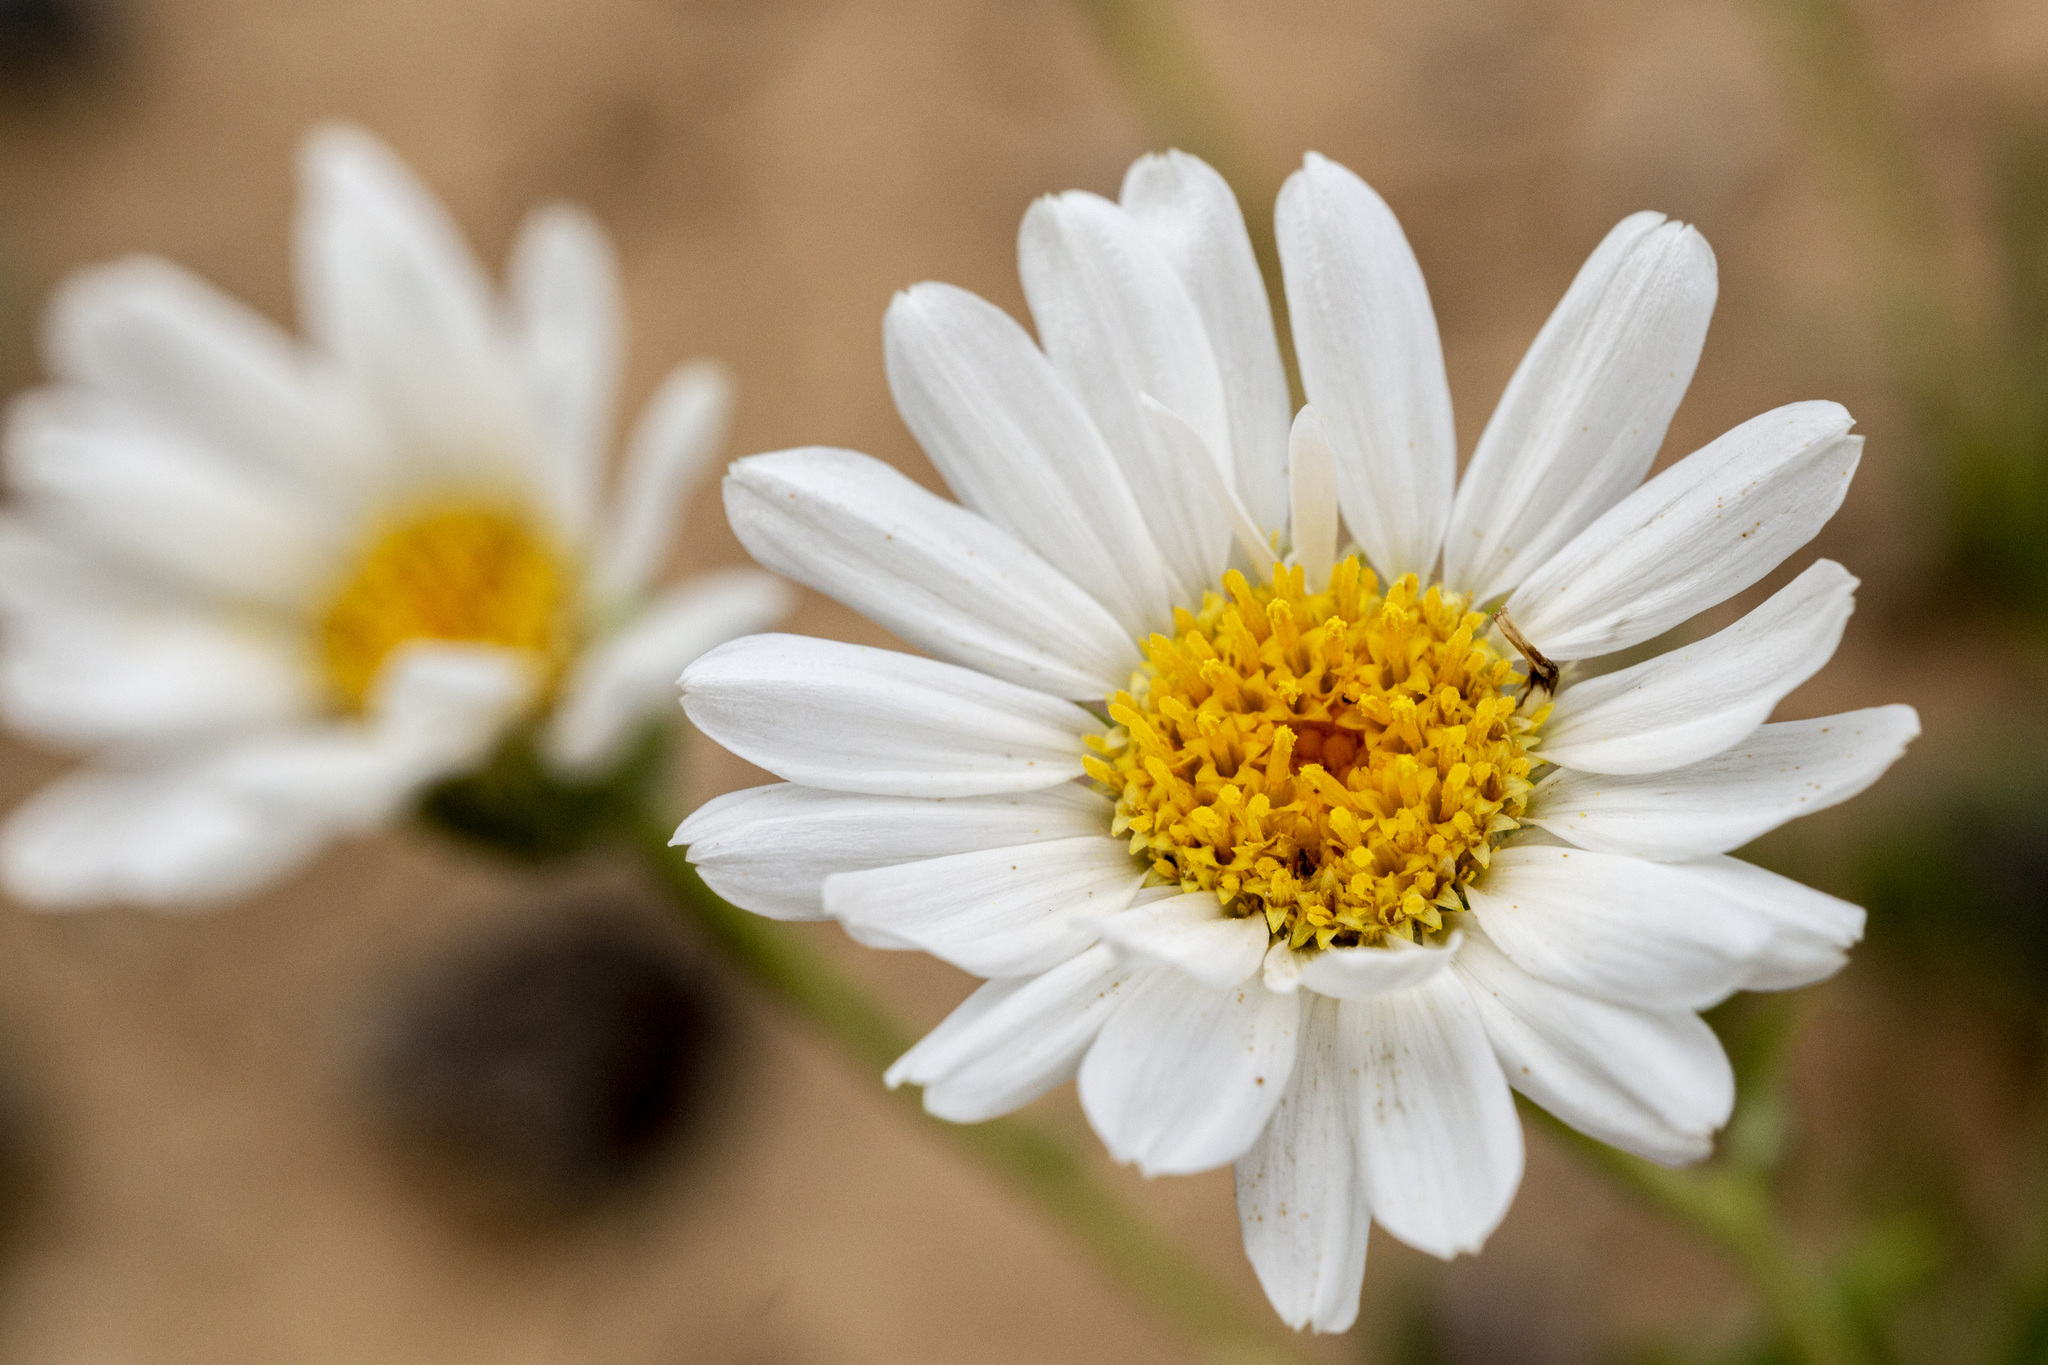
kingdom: Plantae
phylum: Tracheophyta
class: Magnoliopsida
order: Asterales
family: Asteraceae
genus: Xylorhiza
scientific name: Xylorhiza glabriuscula
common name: Smooth woody-aster
